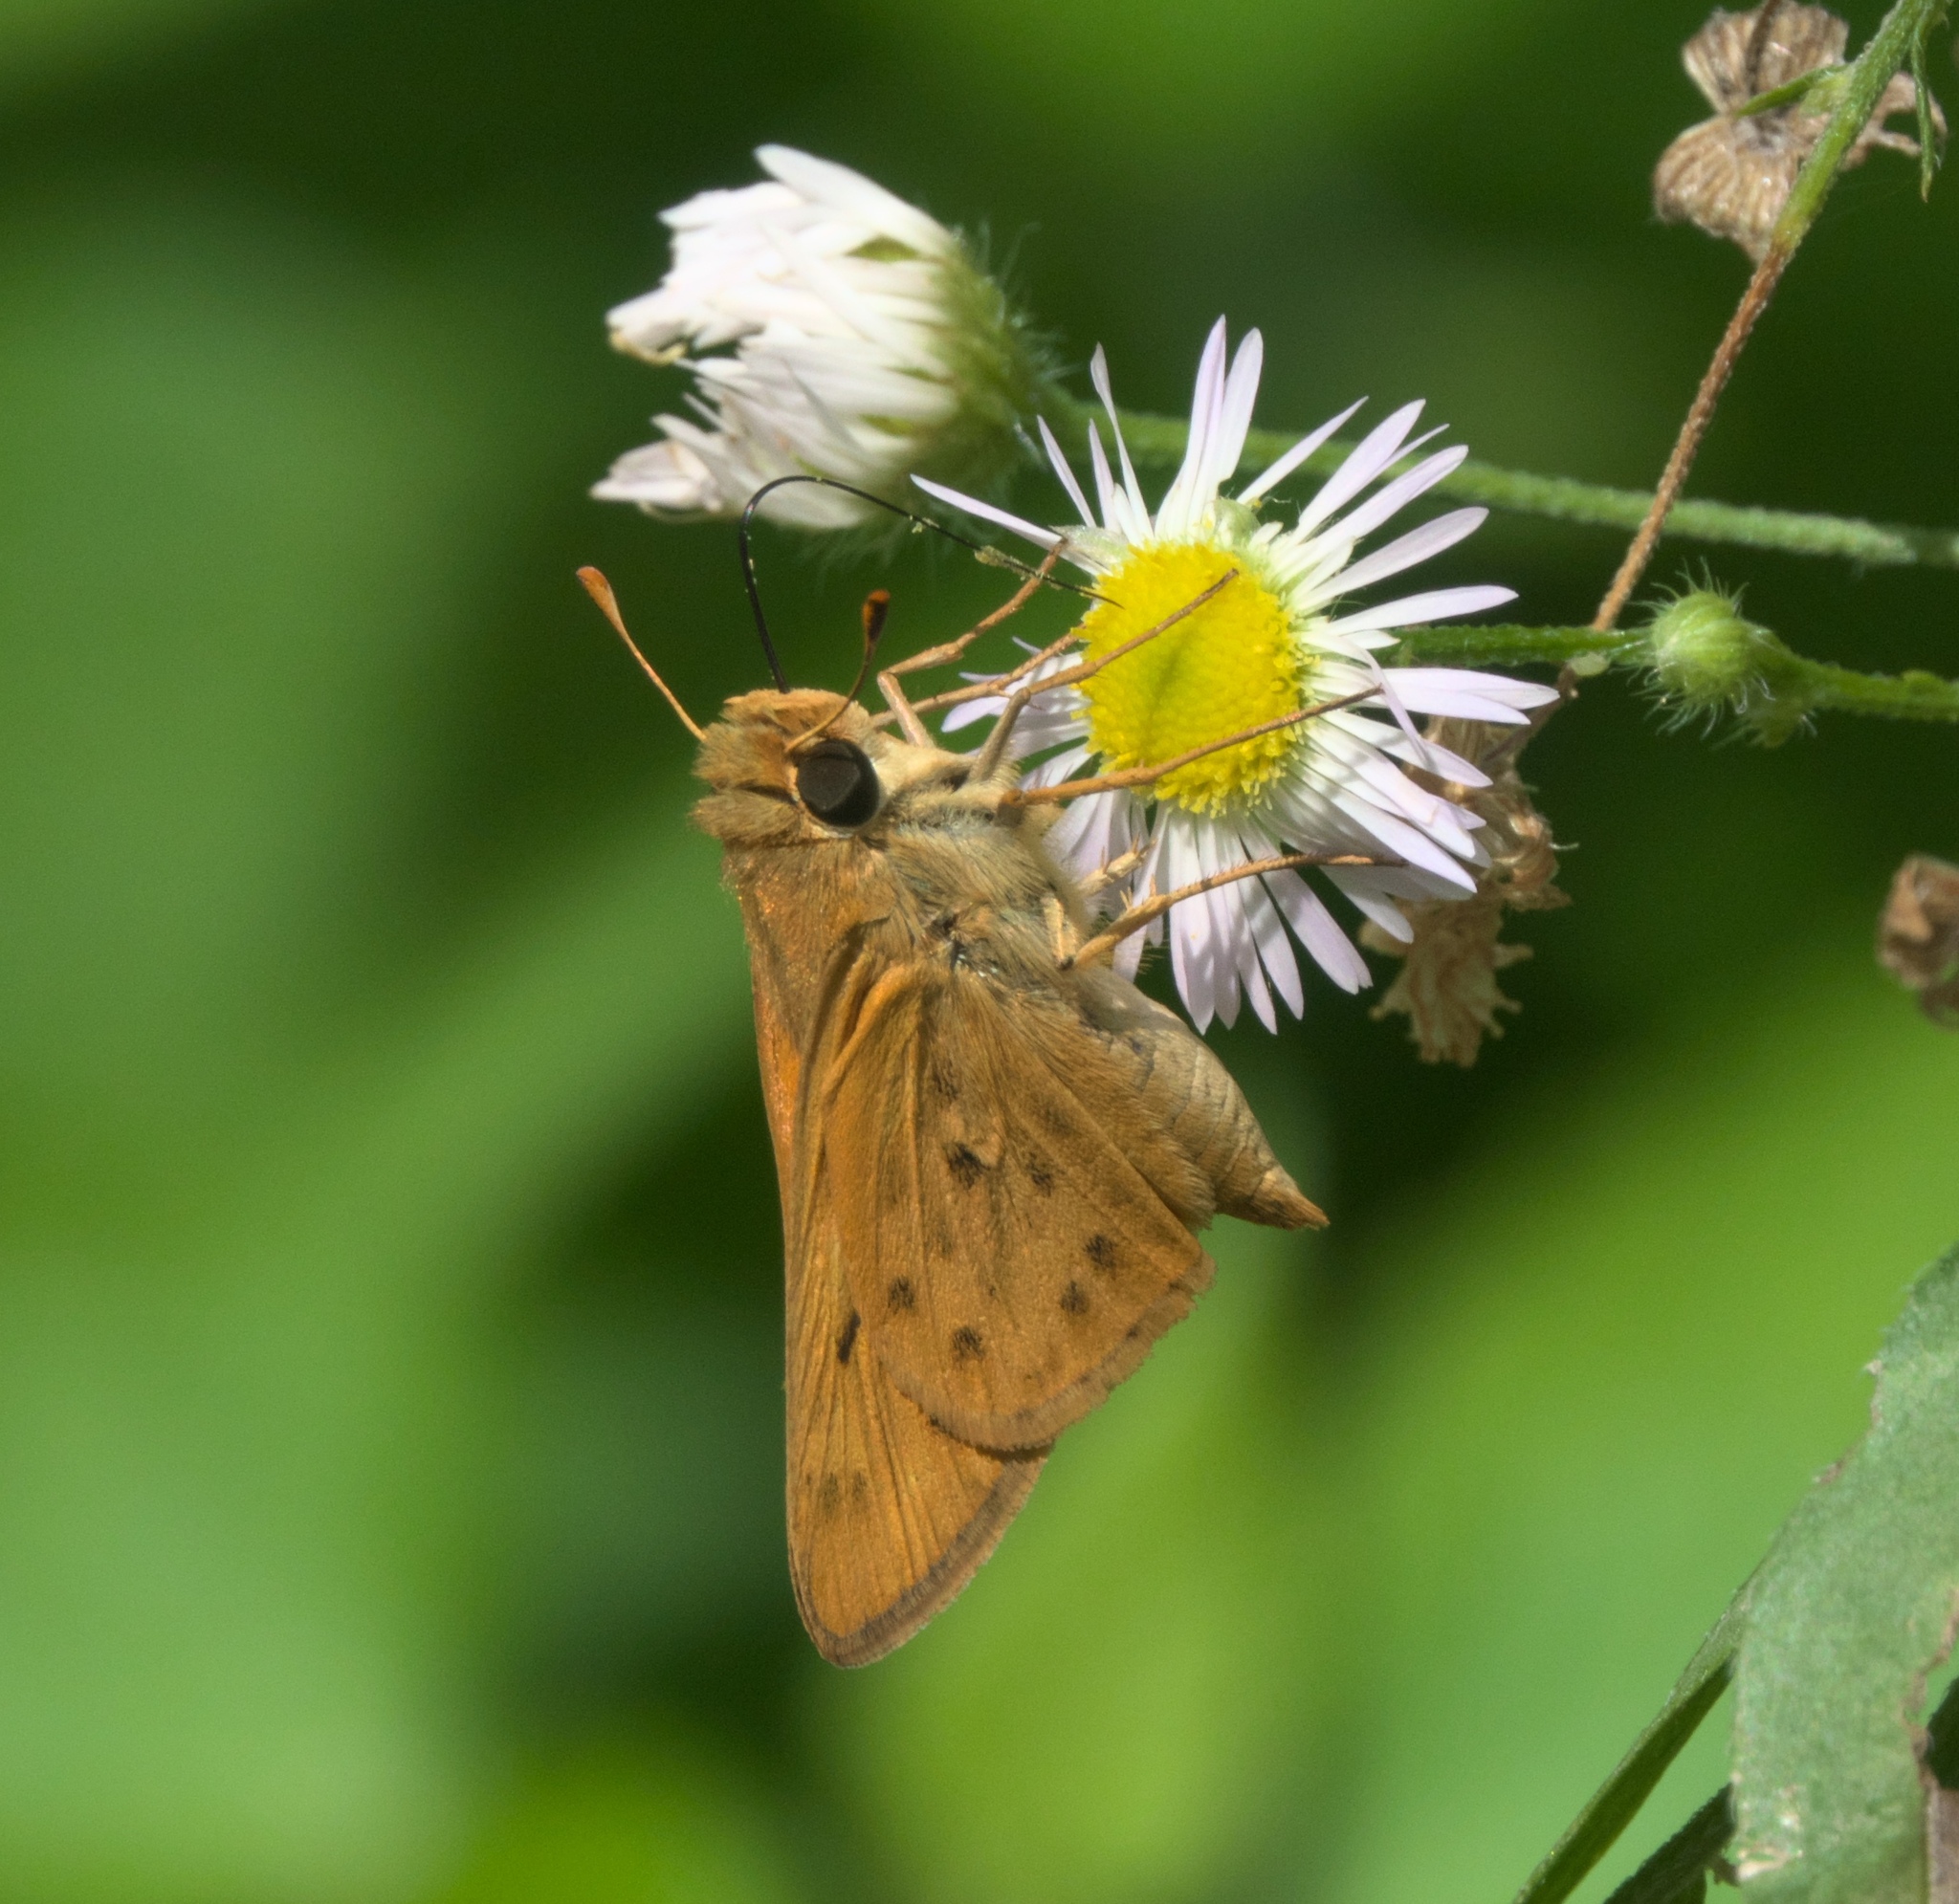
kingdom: Animalia
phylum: Arthropoda
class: Insecta
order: Lepidoptera
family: Hesperiidae
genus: Hylephila
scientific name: Hylephila phyleus
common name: Fiery skipper
